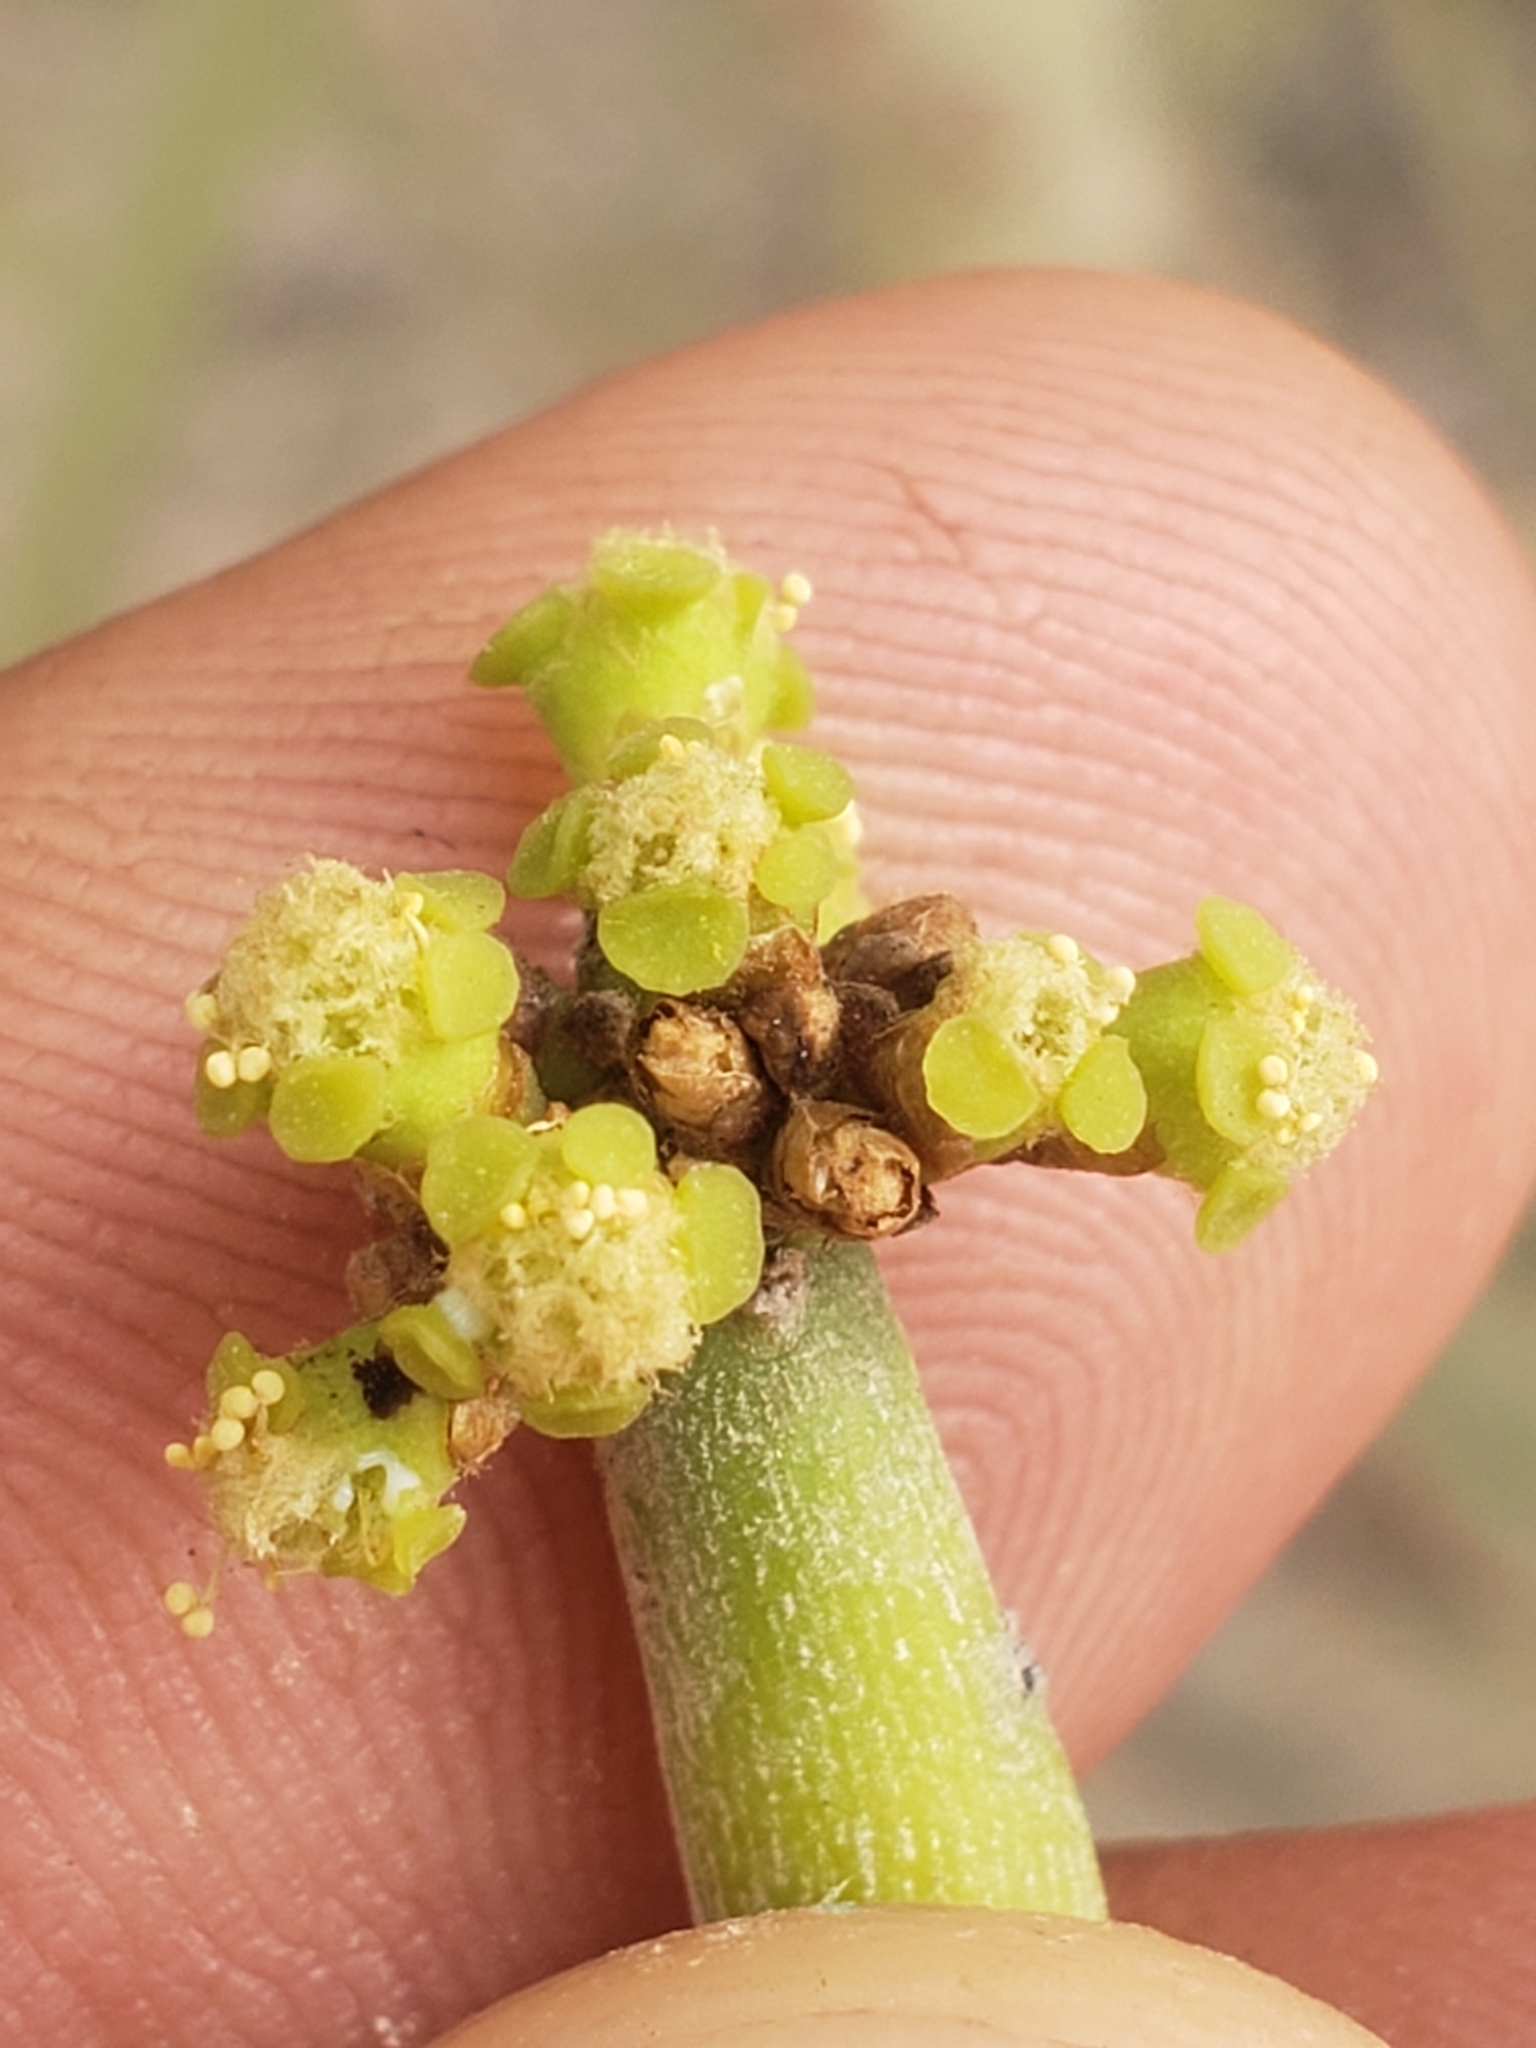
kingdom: Plantae
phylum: Tracheophyta
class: Magnoliopsida
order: Malpighiales
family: Euphorbiaceae
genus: Euphorbia
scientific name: Euphorbia tirucalli
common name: Indiantree spurge
